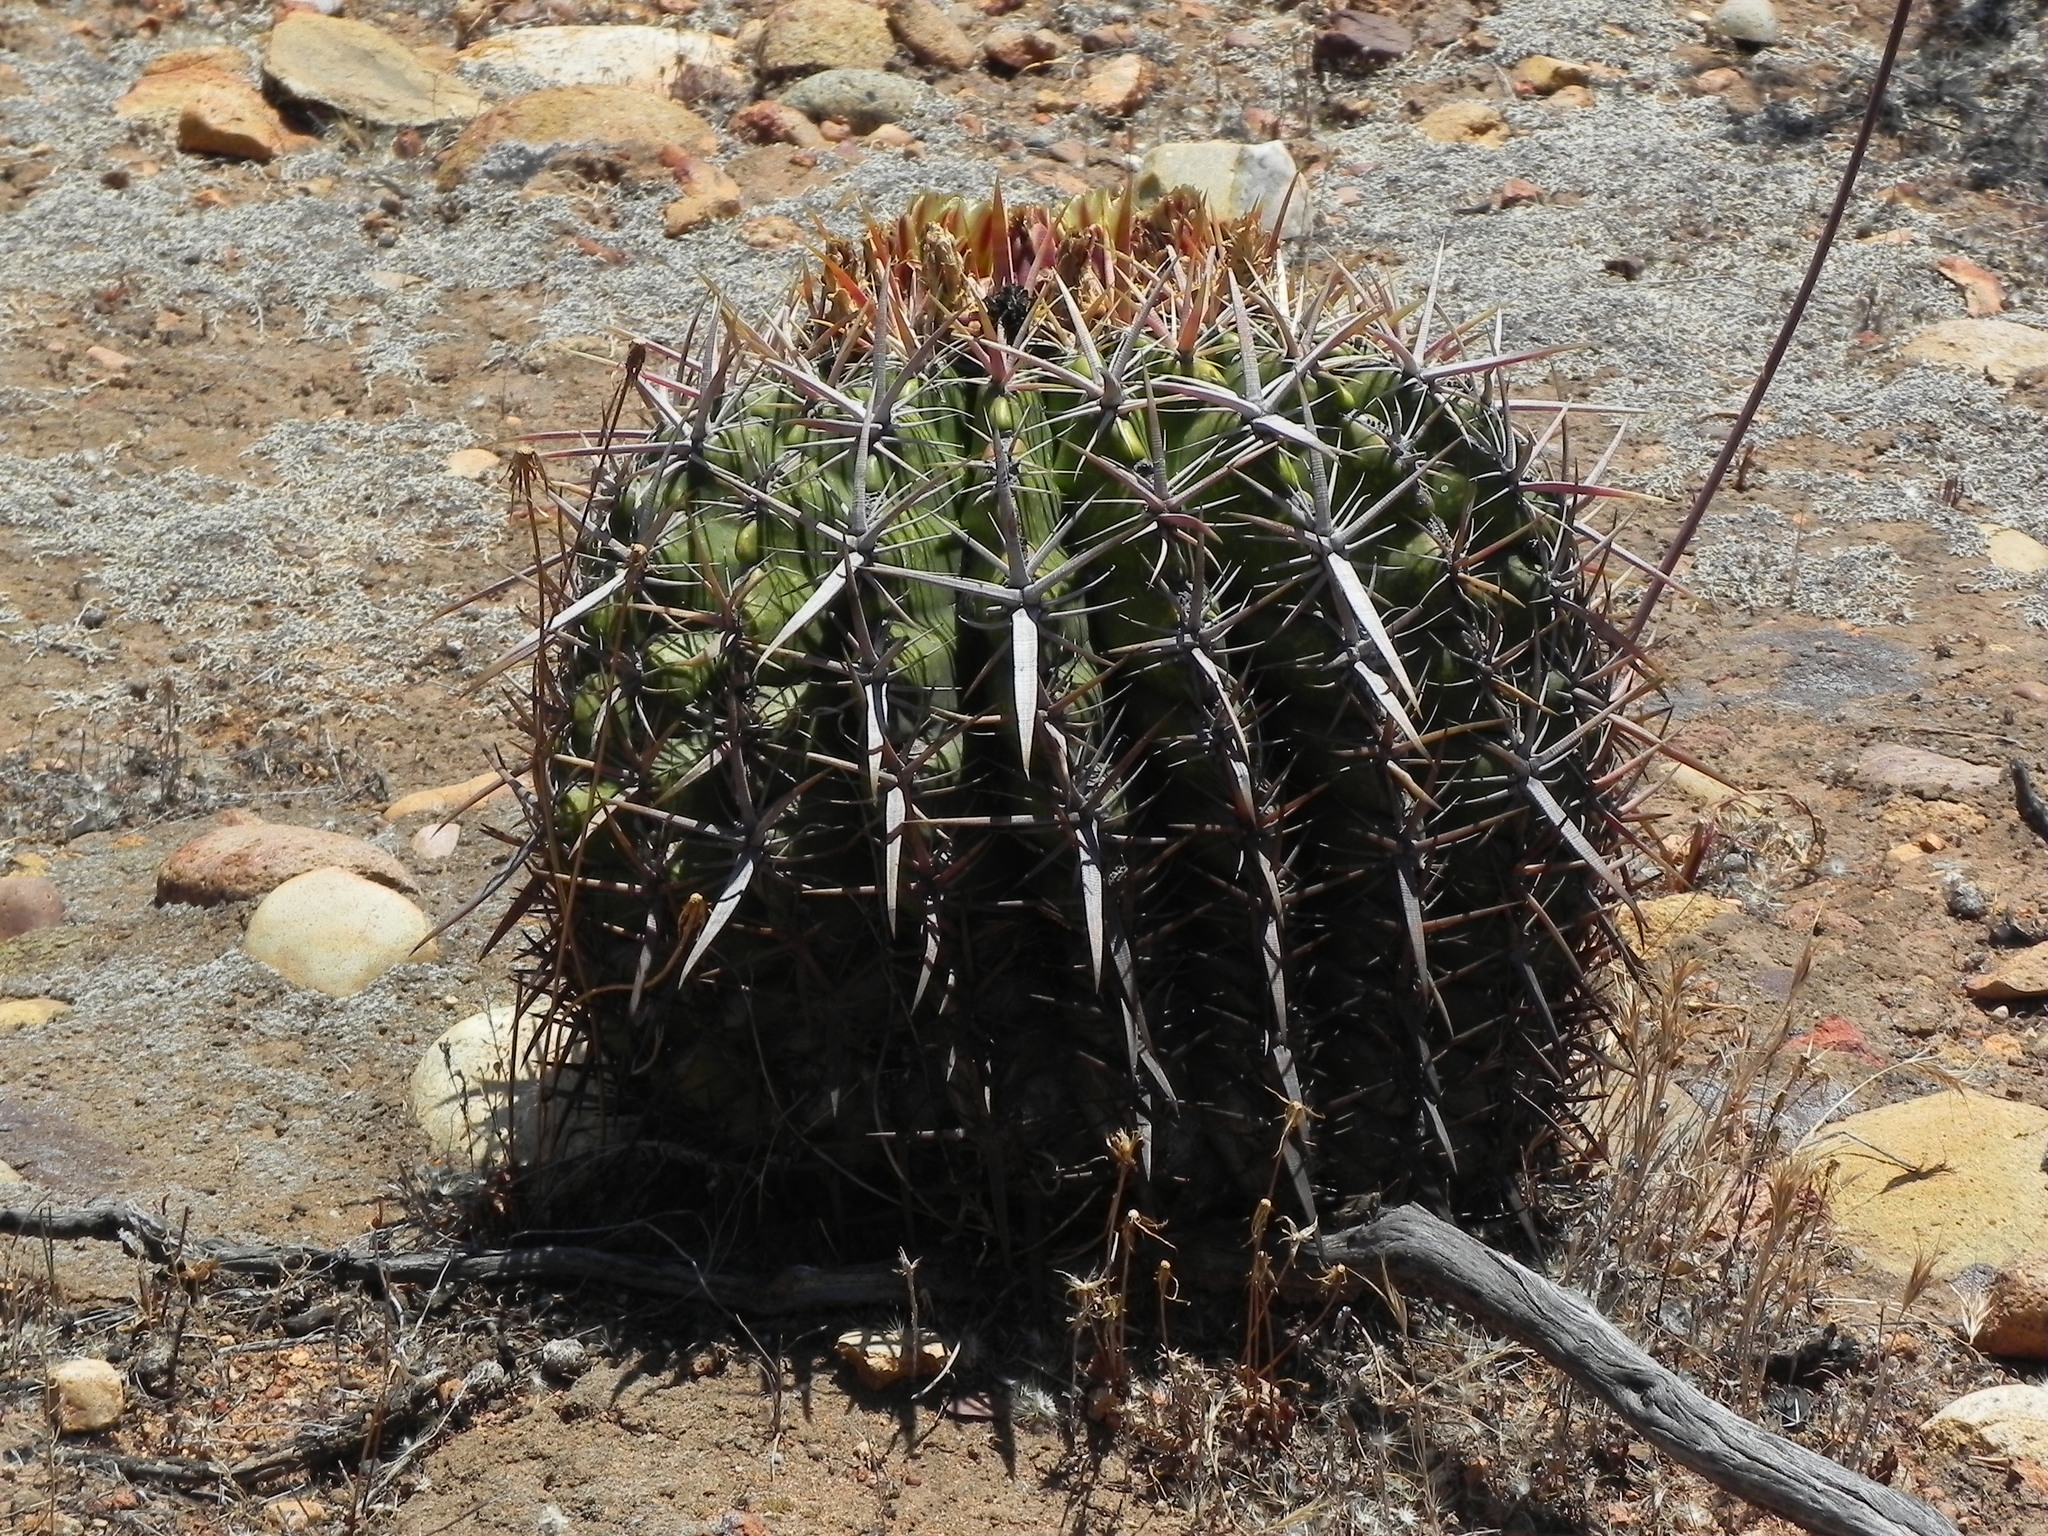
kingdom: Plantae
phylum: Tracheophyta
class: Magnoliopsida
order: Caryophyllales
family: Cactaceae
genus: Ferocactus
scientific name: Ferocactus viridescens
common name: San diego barrel cactus
